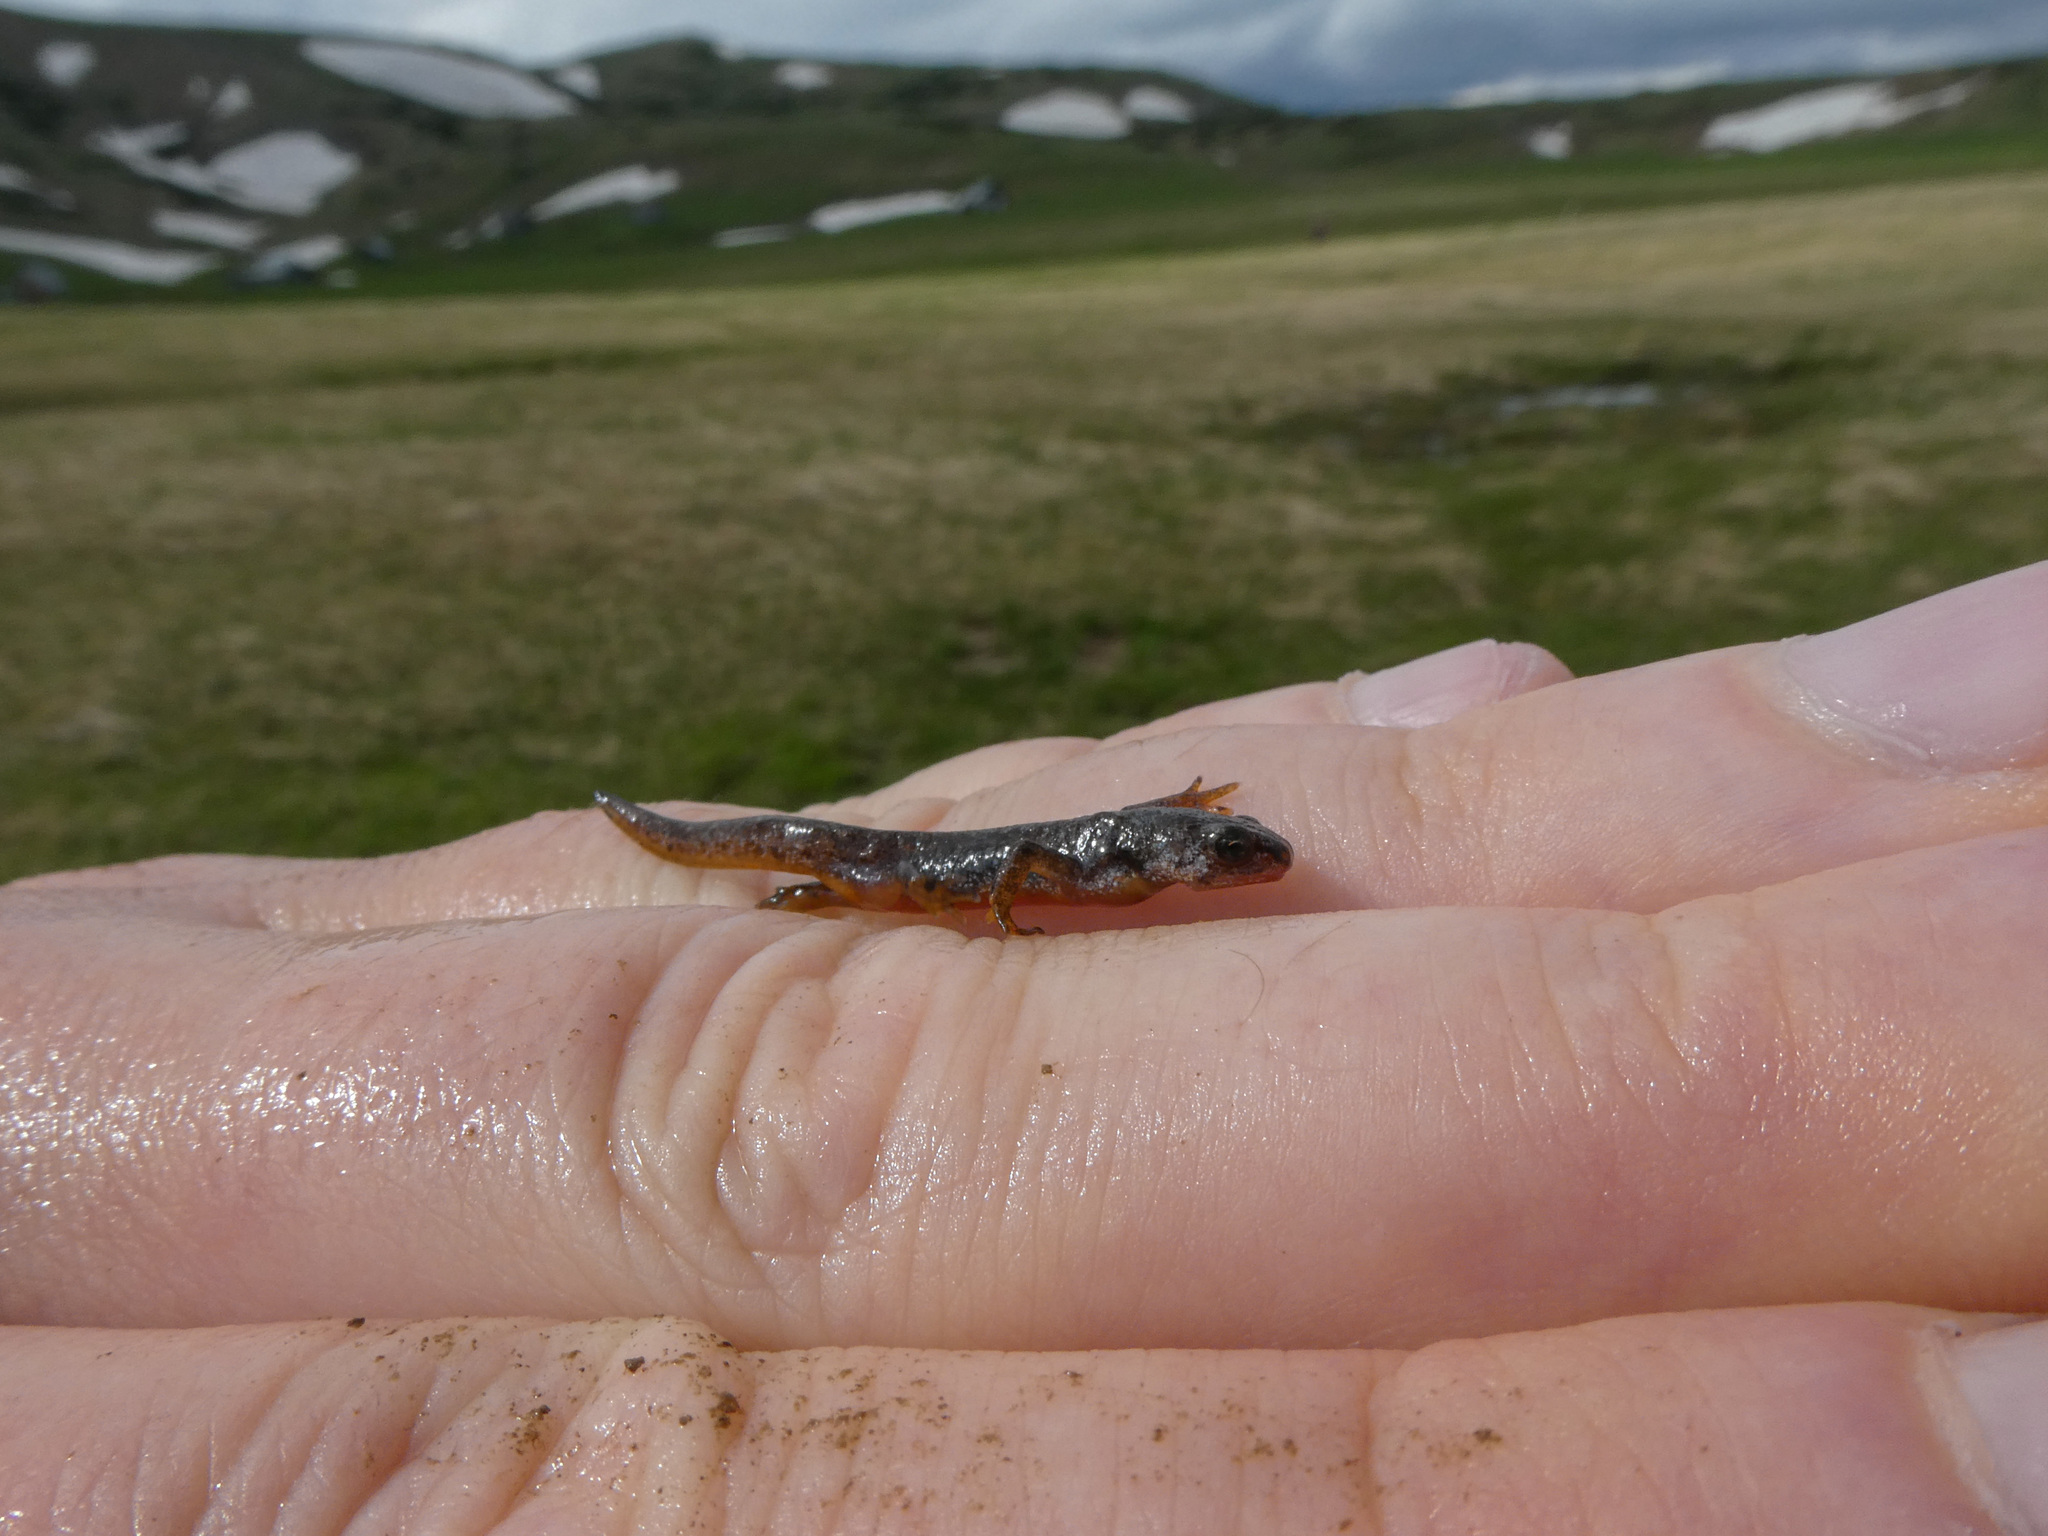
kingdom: Animalia
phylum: Chordata
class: Amphibia
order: Caudata
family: Salamandridae
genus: Ichthyosaura
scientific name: Ichthyosaura alpestris
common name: Alpine newt
